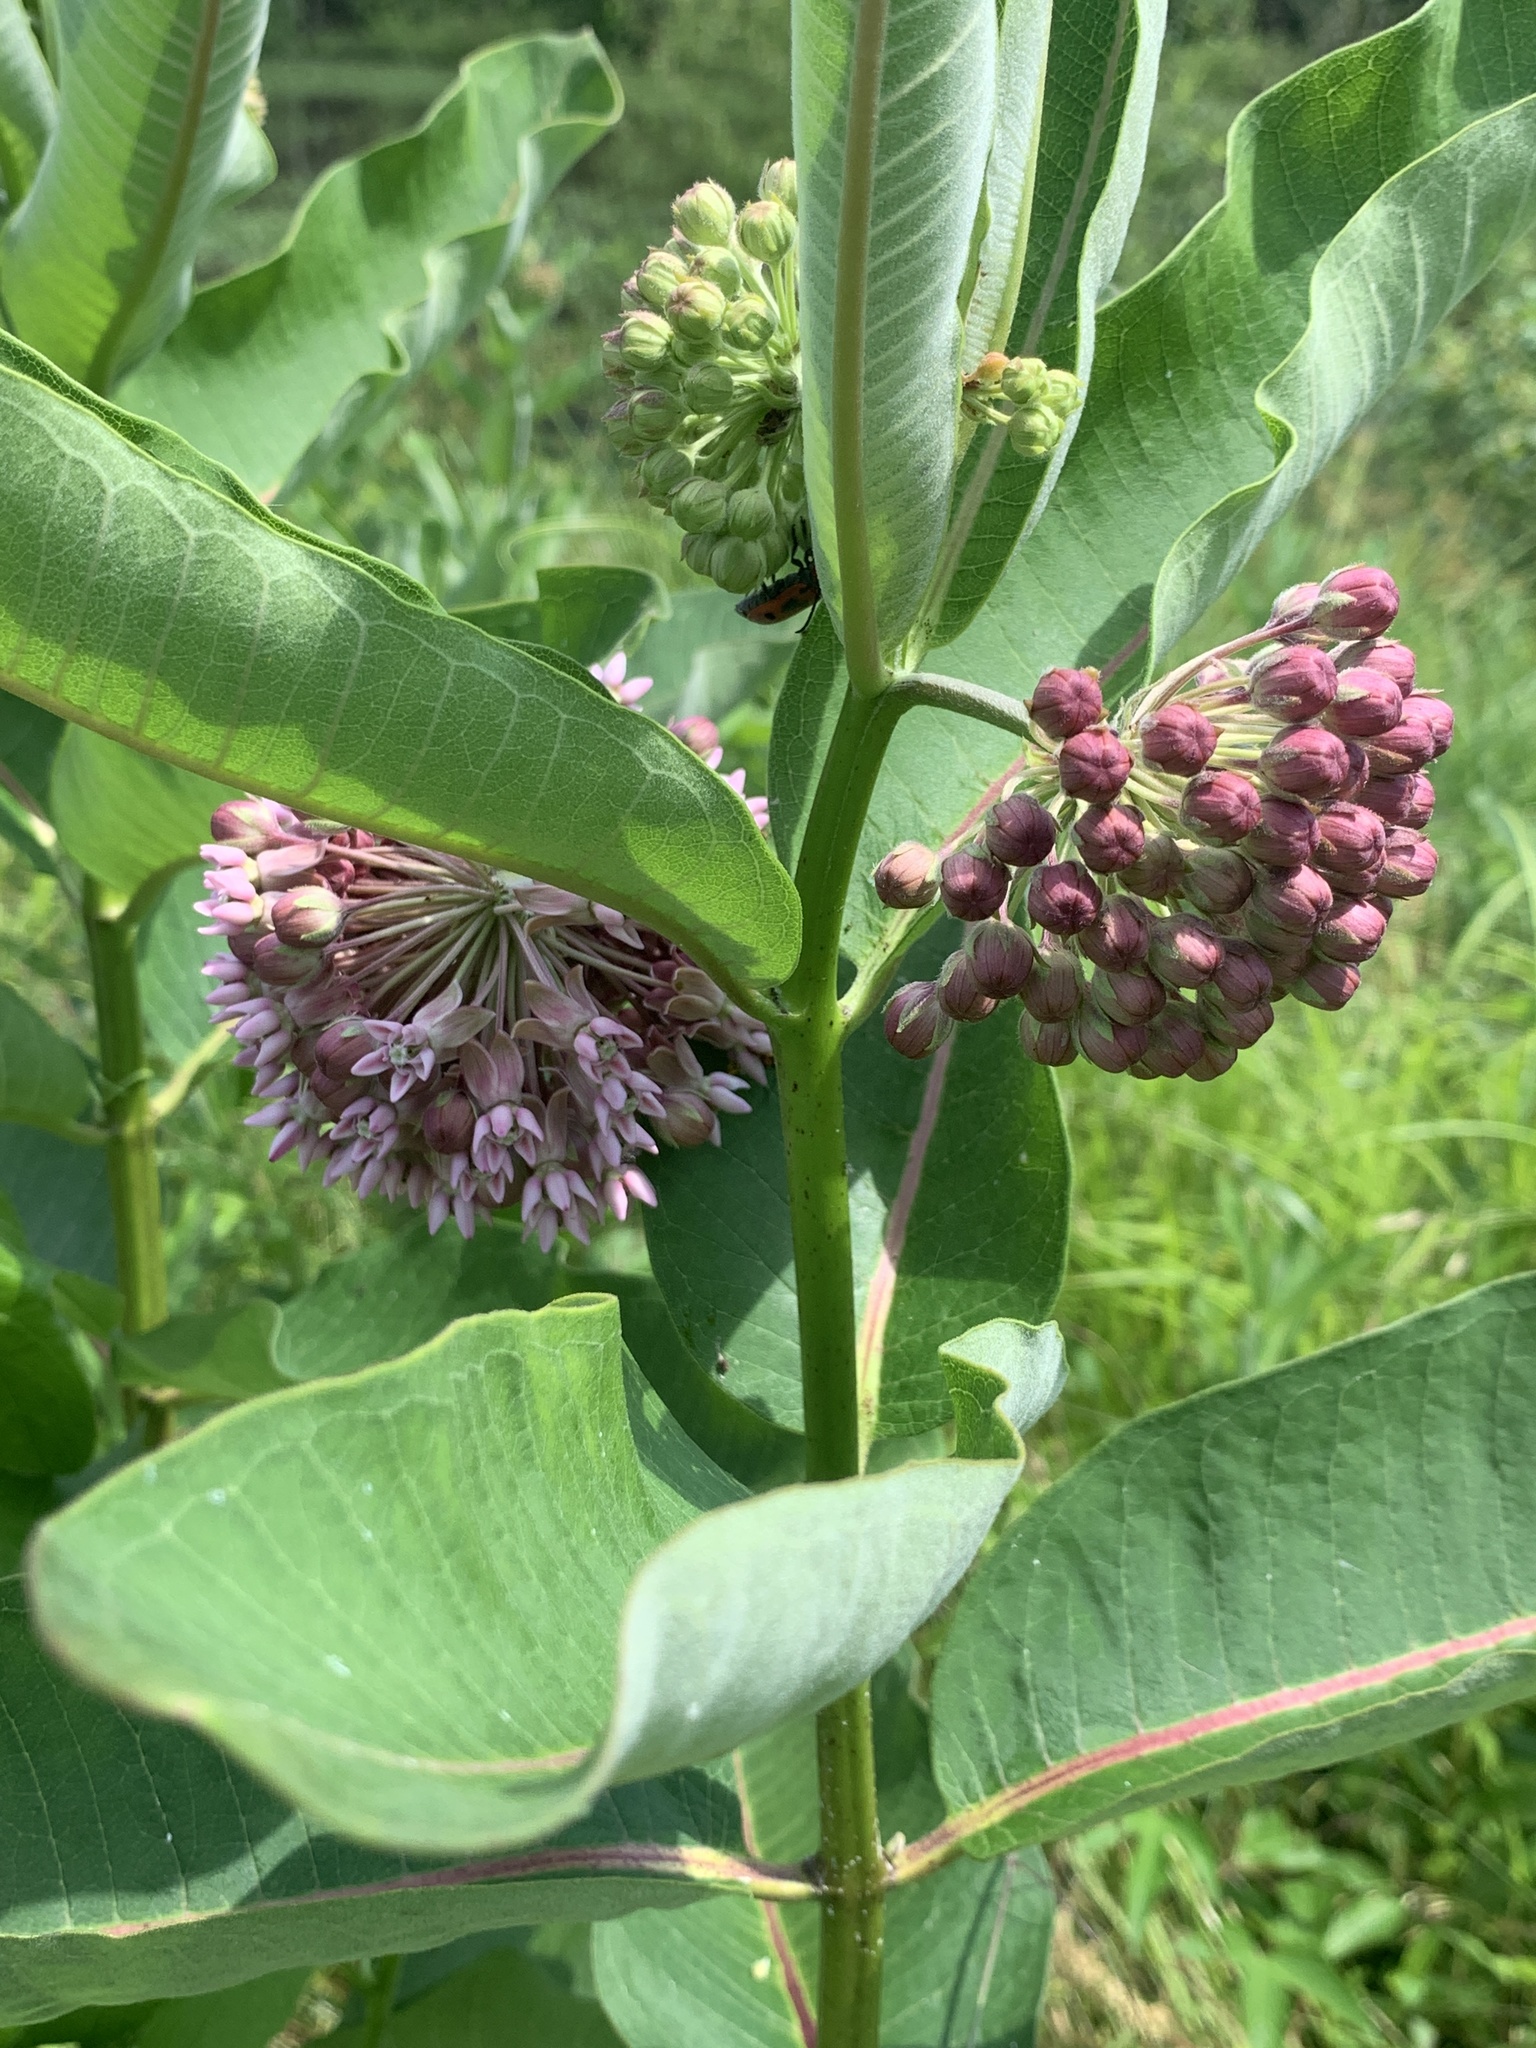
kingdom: Plantae
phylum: Tracheophyta
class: Magnoliopsida
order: Gentianales
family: Apocynaceae
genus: Asclepias
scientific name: Asclepias syriaca
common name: Common milkweed
